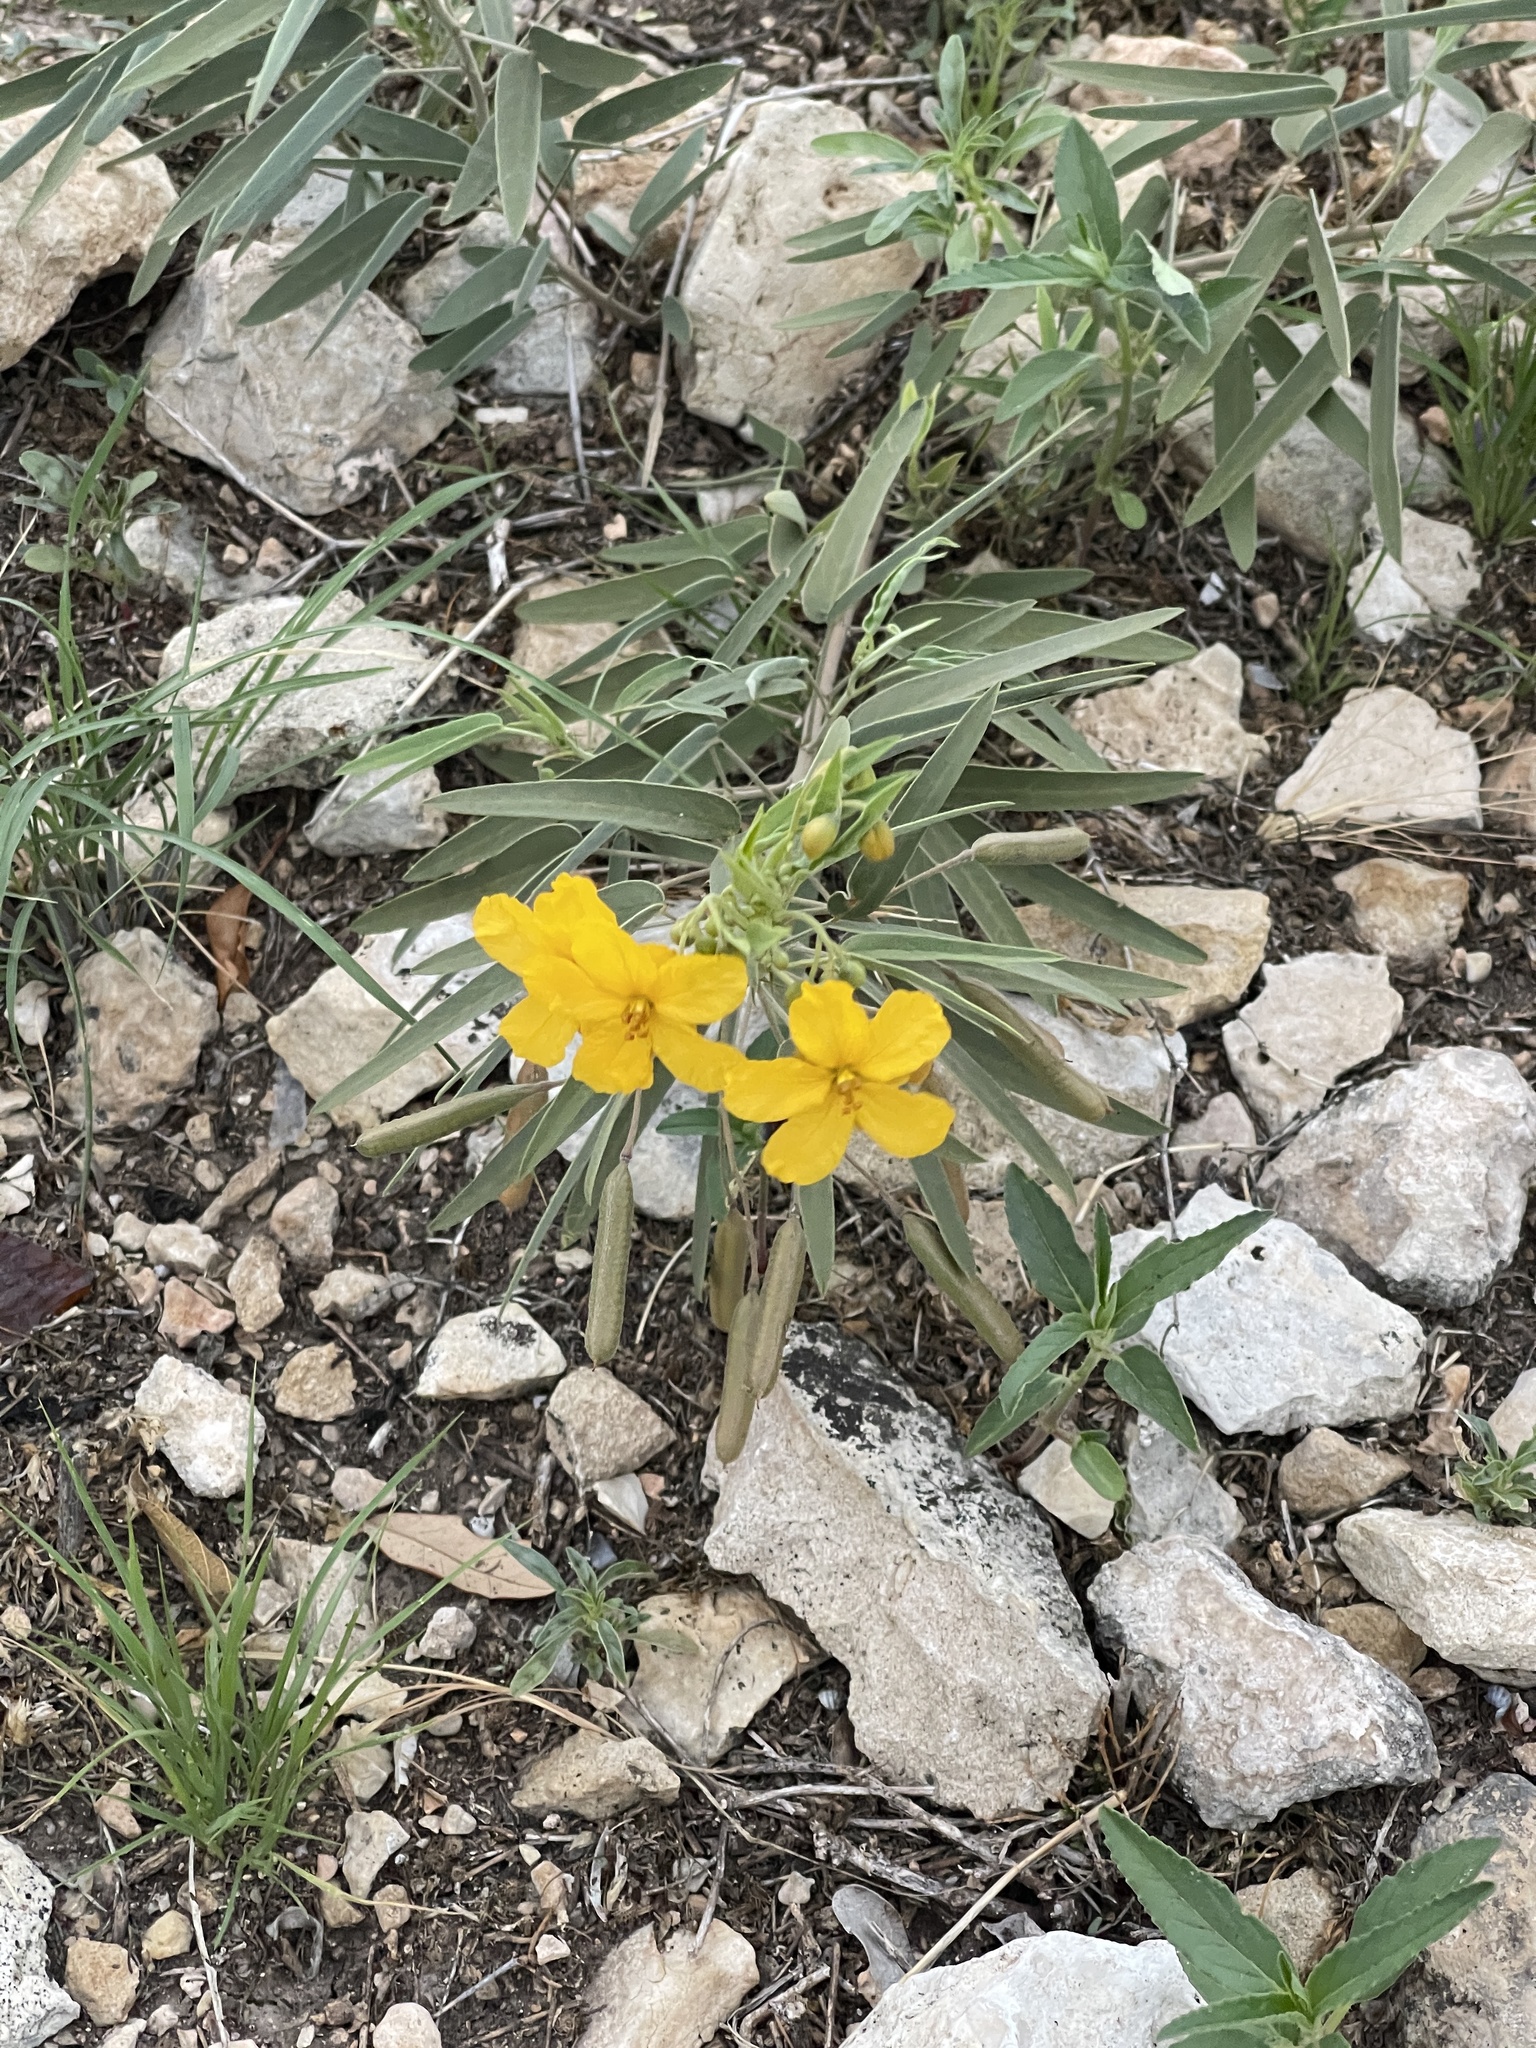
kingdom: Plantae
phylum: Tracheophyta
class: Magnoliopsida
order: Fabales
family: Fabaceae
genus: Senna
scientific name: Senna roemeriana
